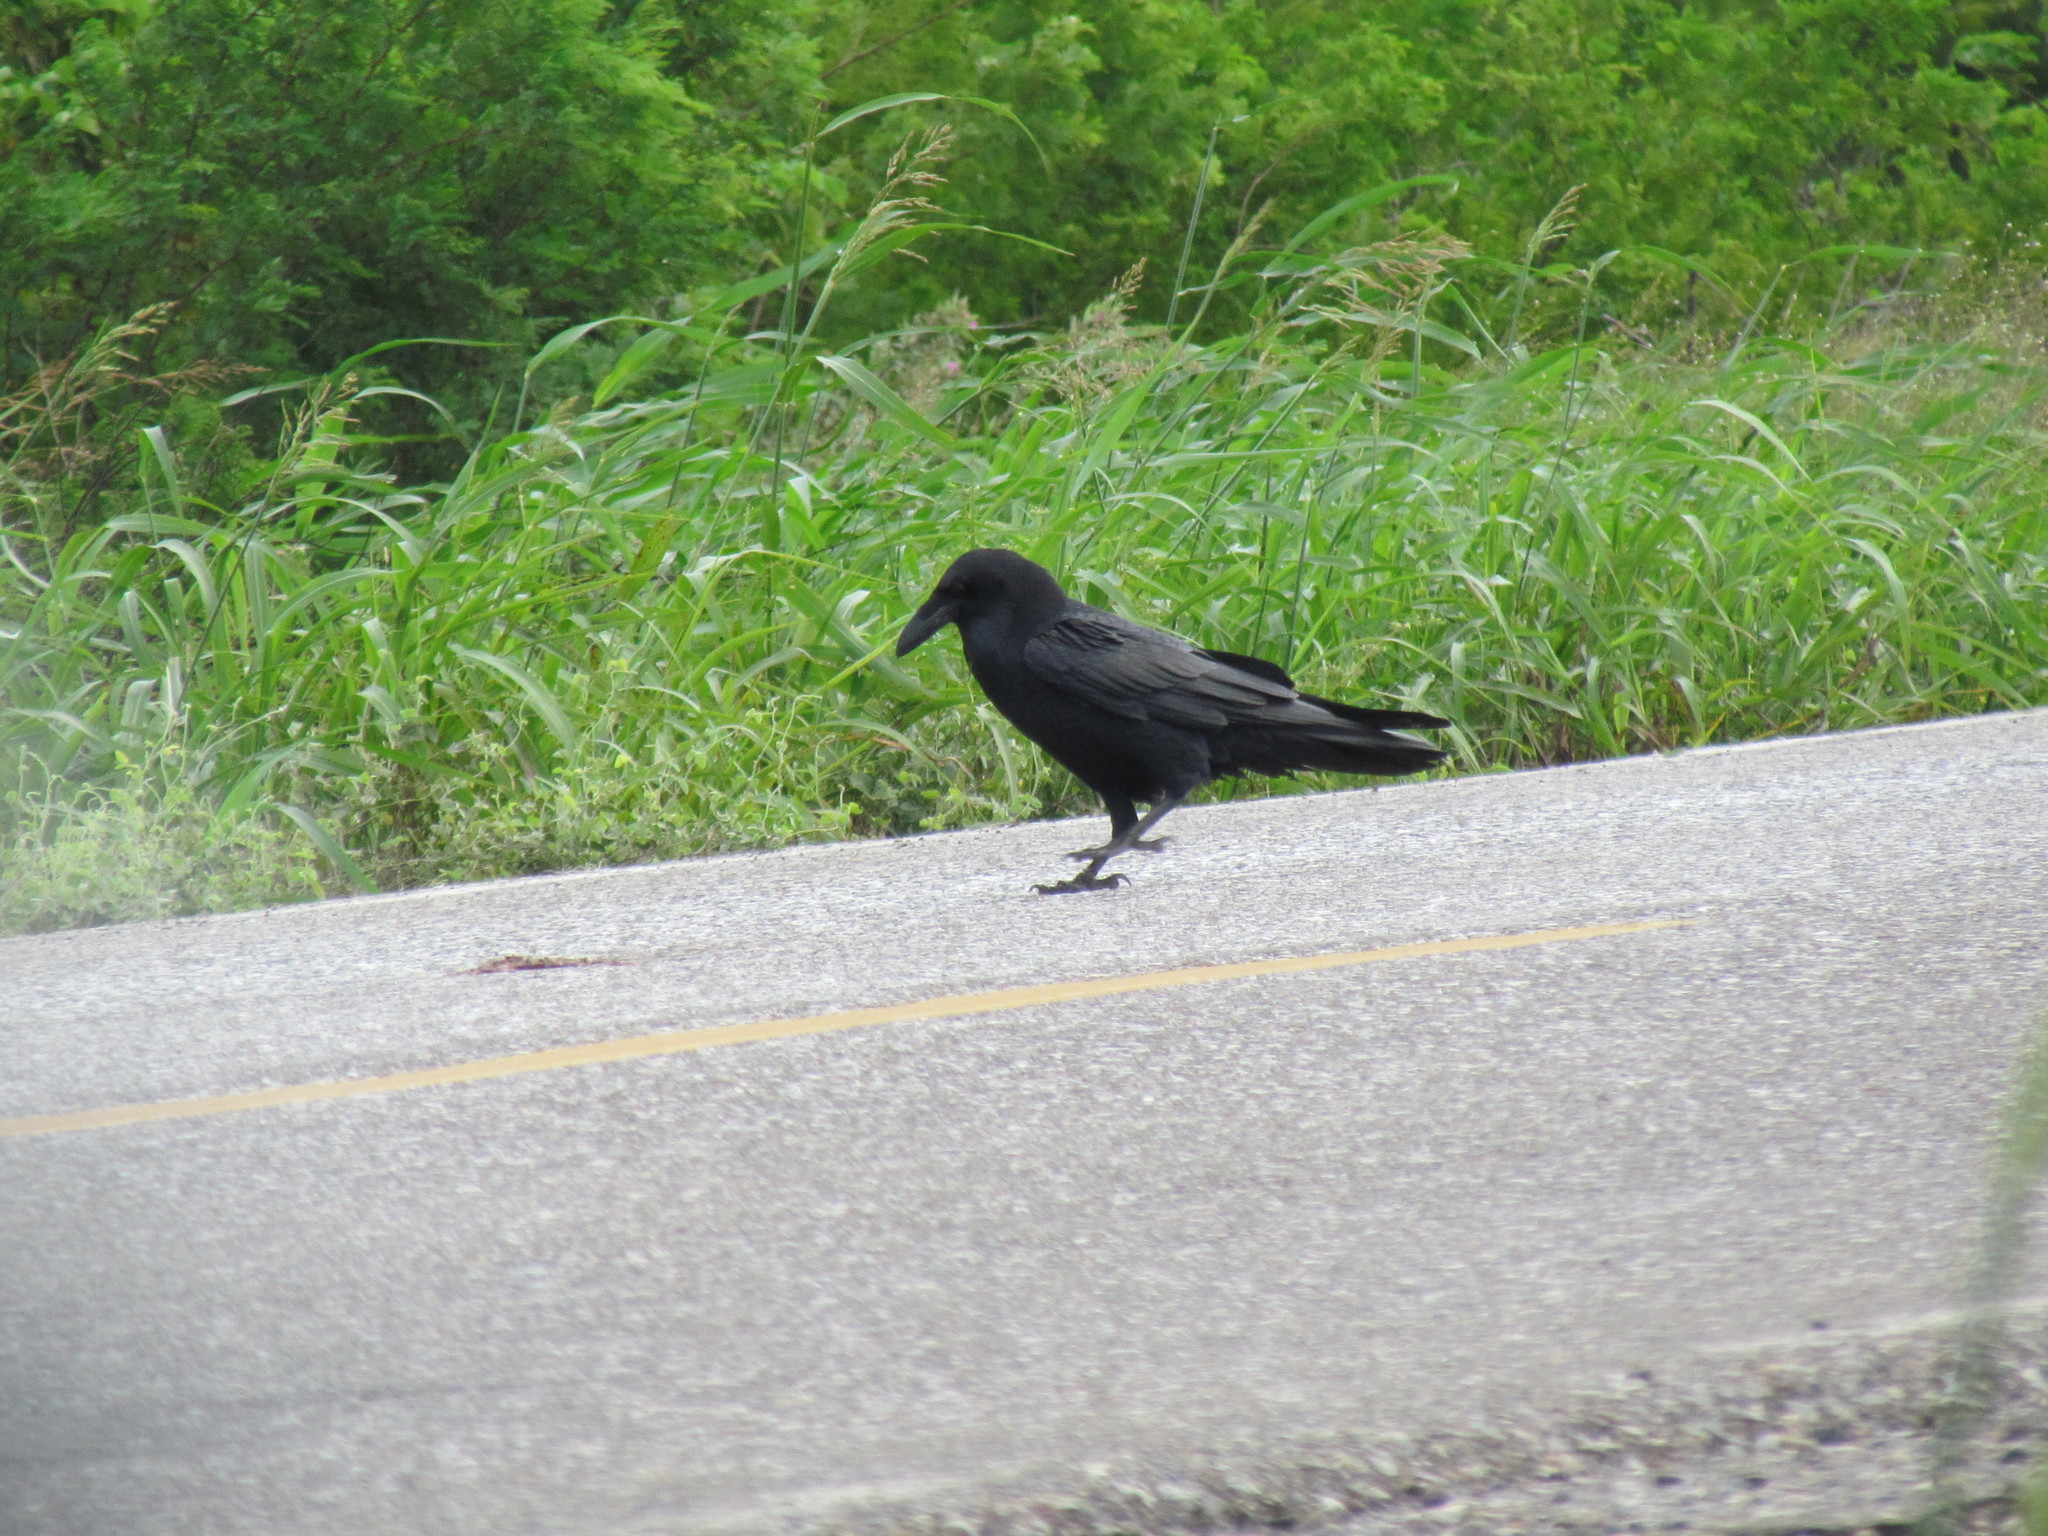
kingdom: Animalia
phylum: Chordata
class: Aves
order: Passeriformes
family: Corvidae
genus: Corvus
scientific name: Corvus corax
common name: Common raven
